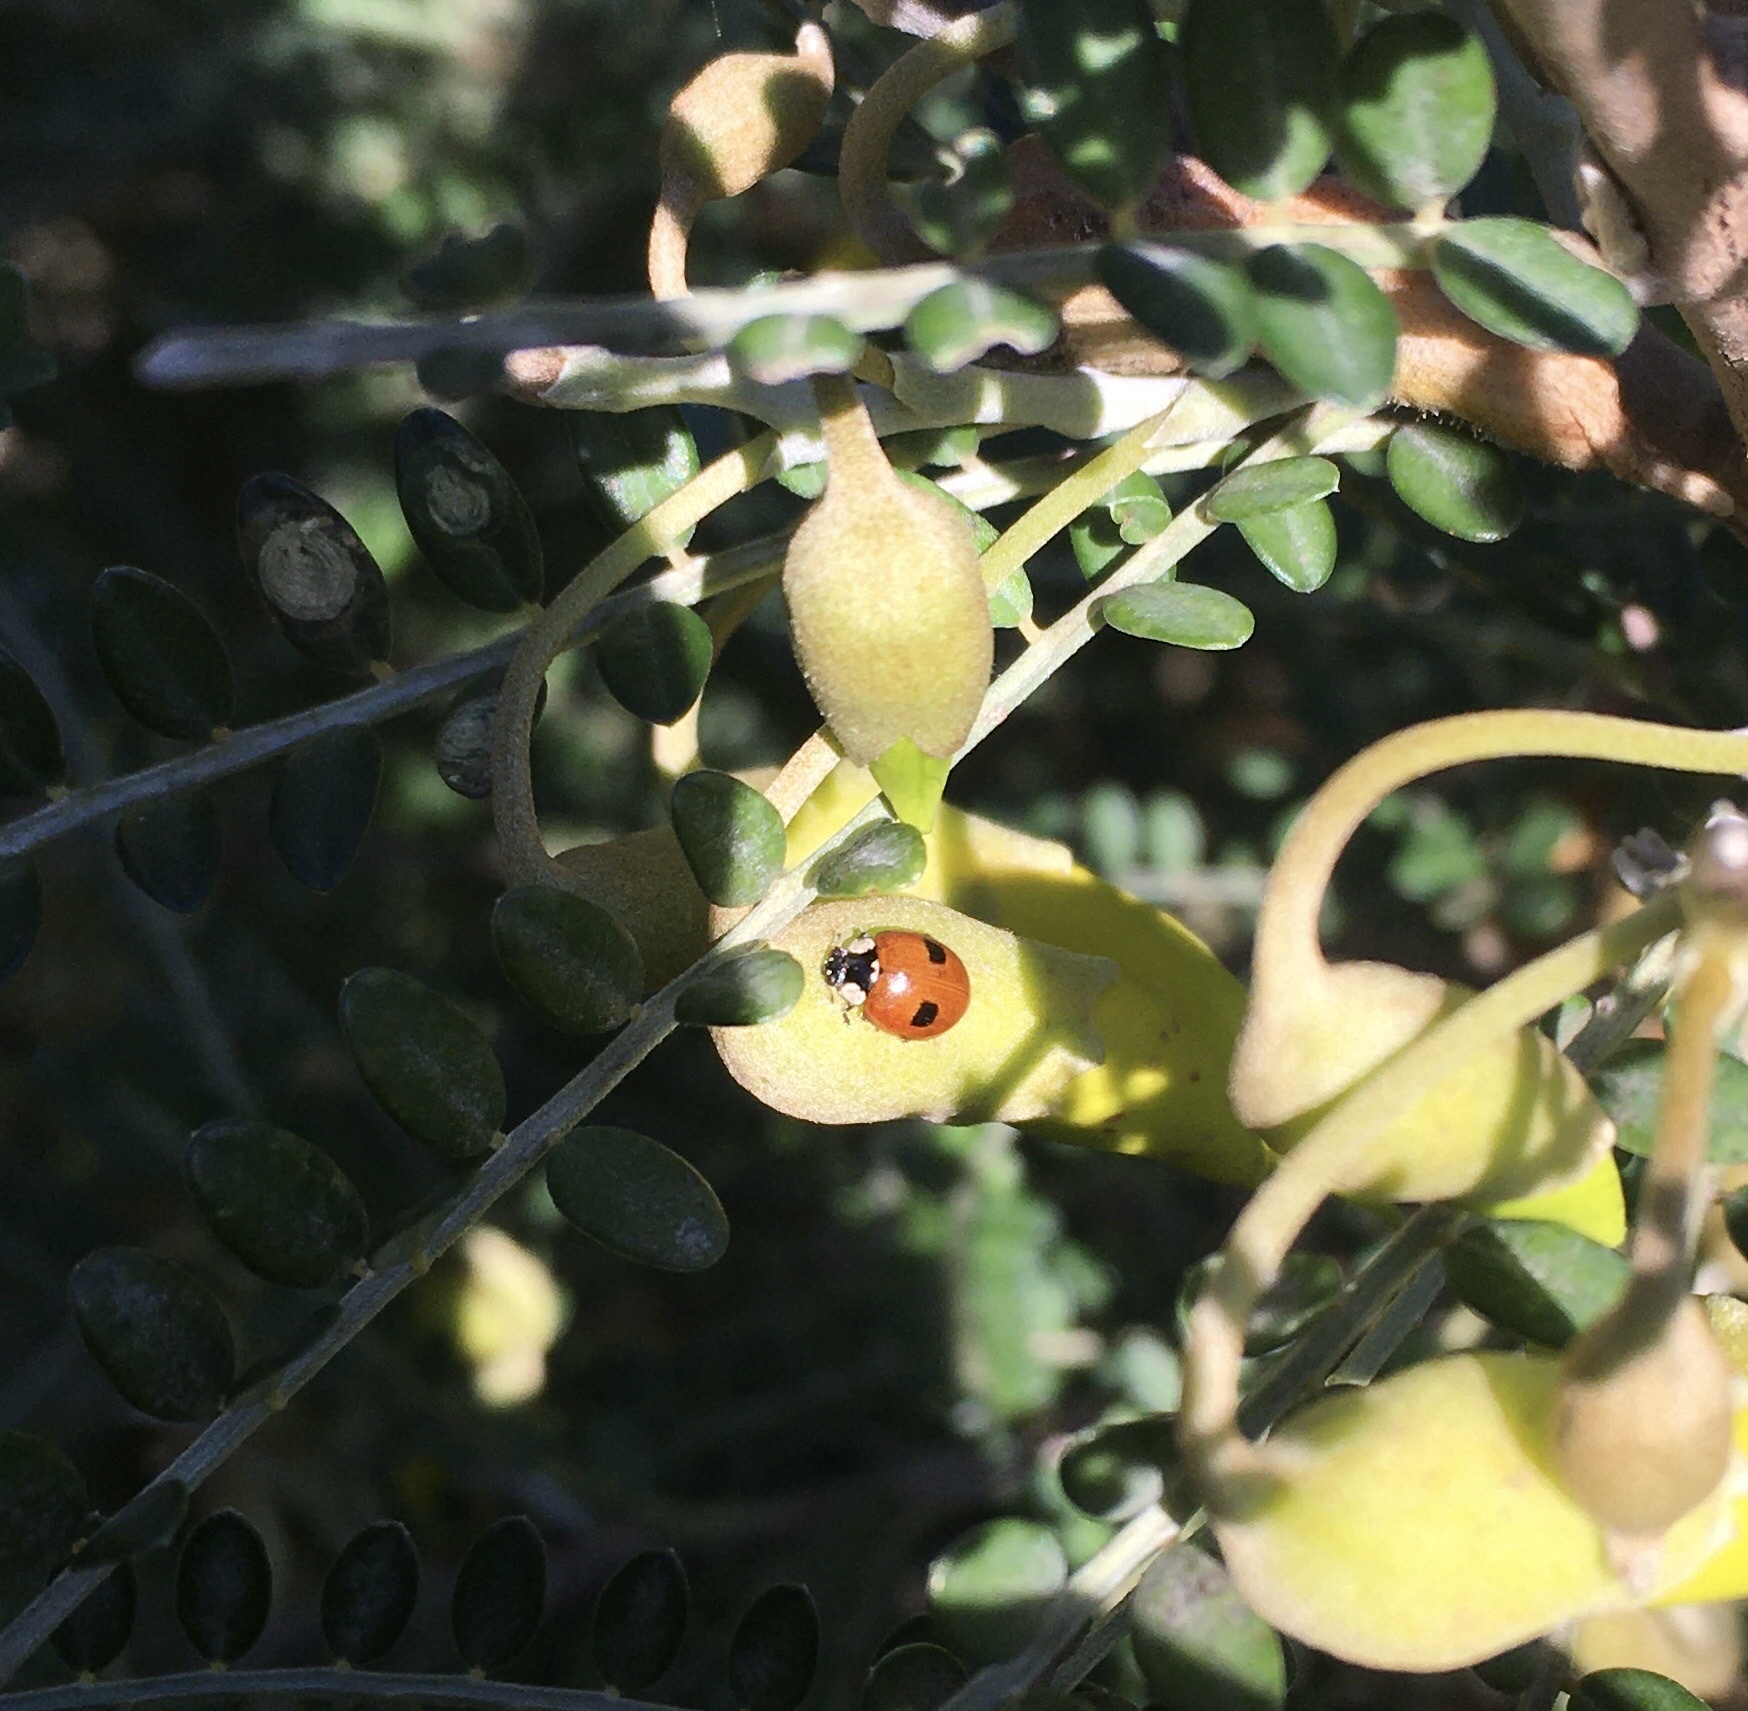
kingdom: Animalia
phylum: Arthropoda
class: Insecta
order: Coleoptera
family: Coccinellidae
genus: Adalia
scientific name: Adalia bipunctata
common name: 2-spot ladybird
